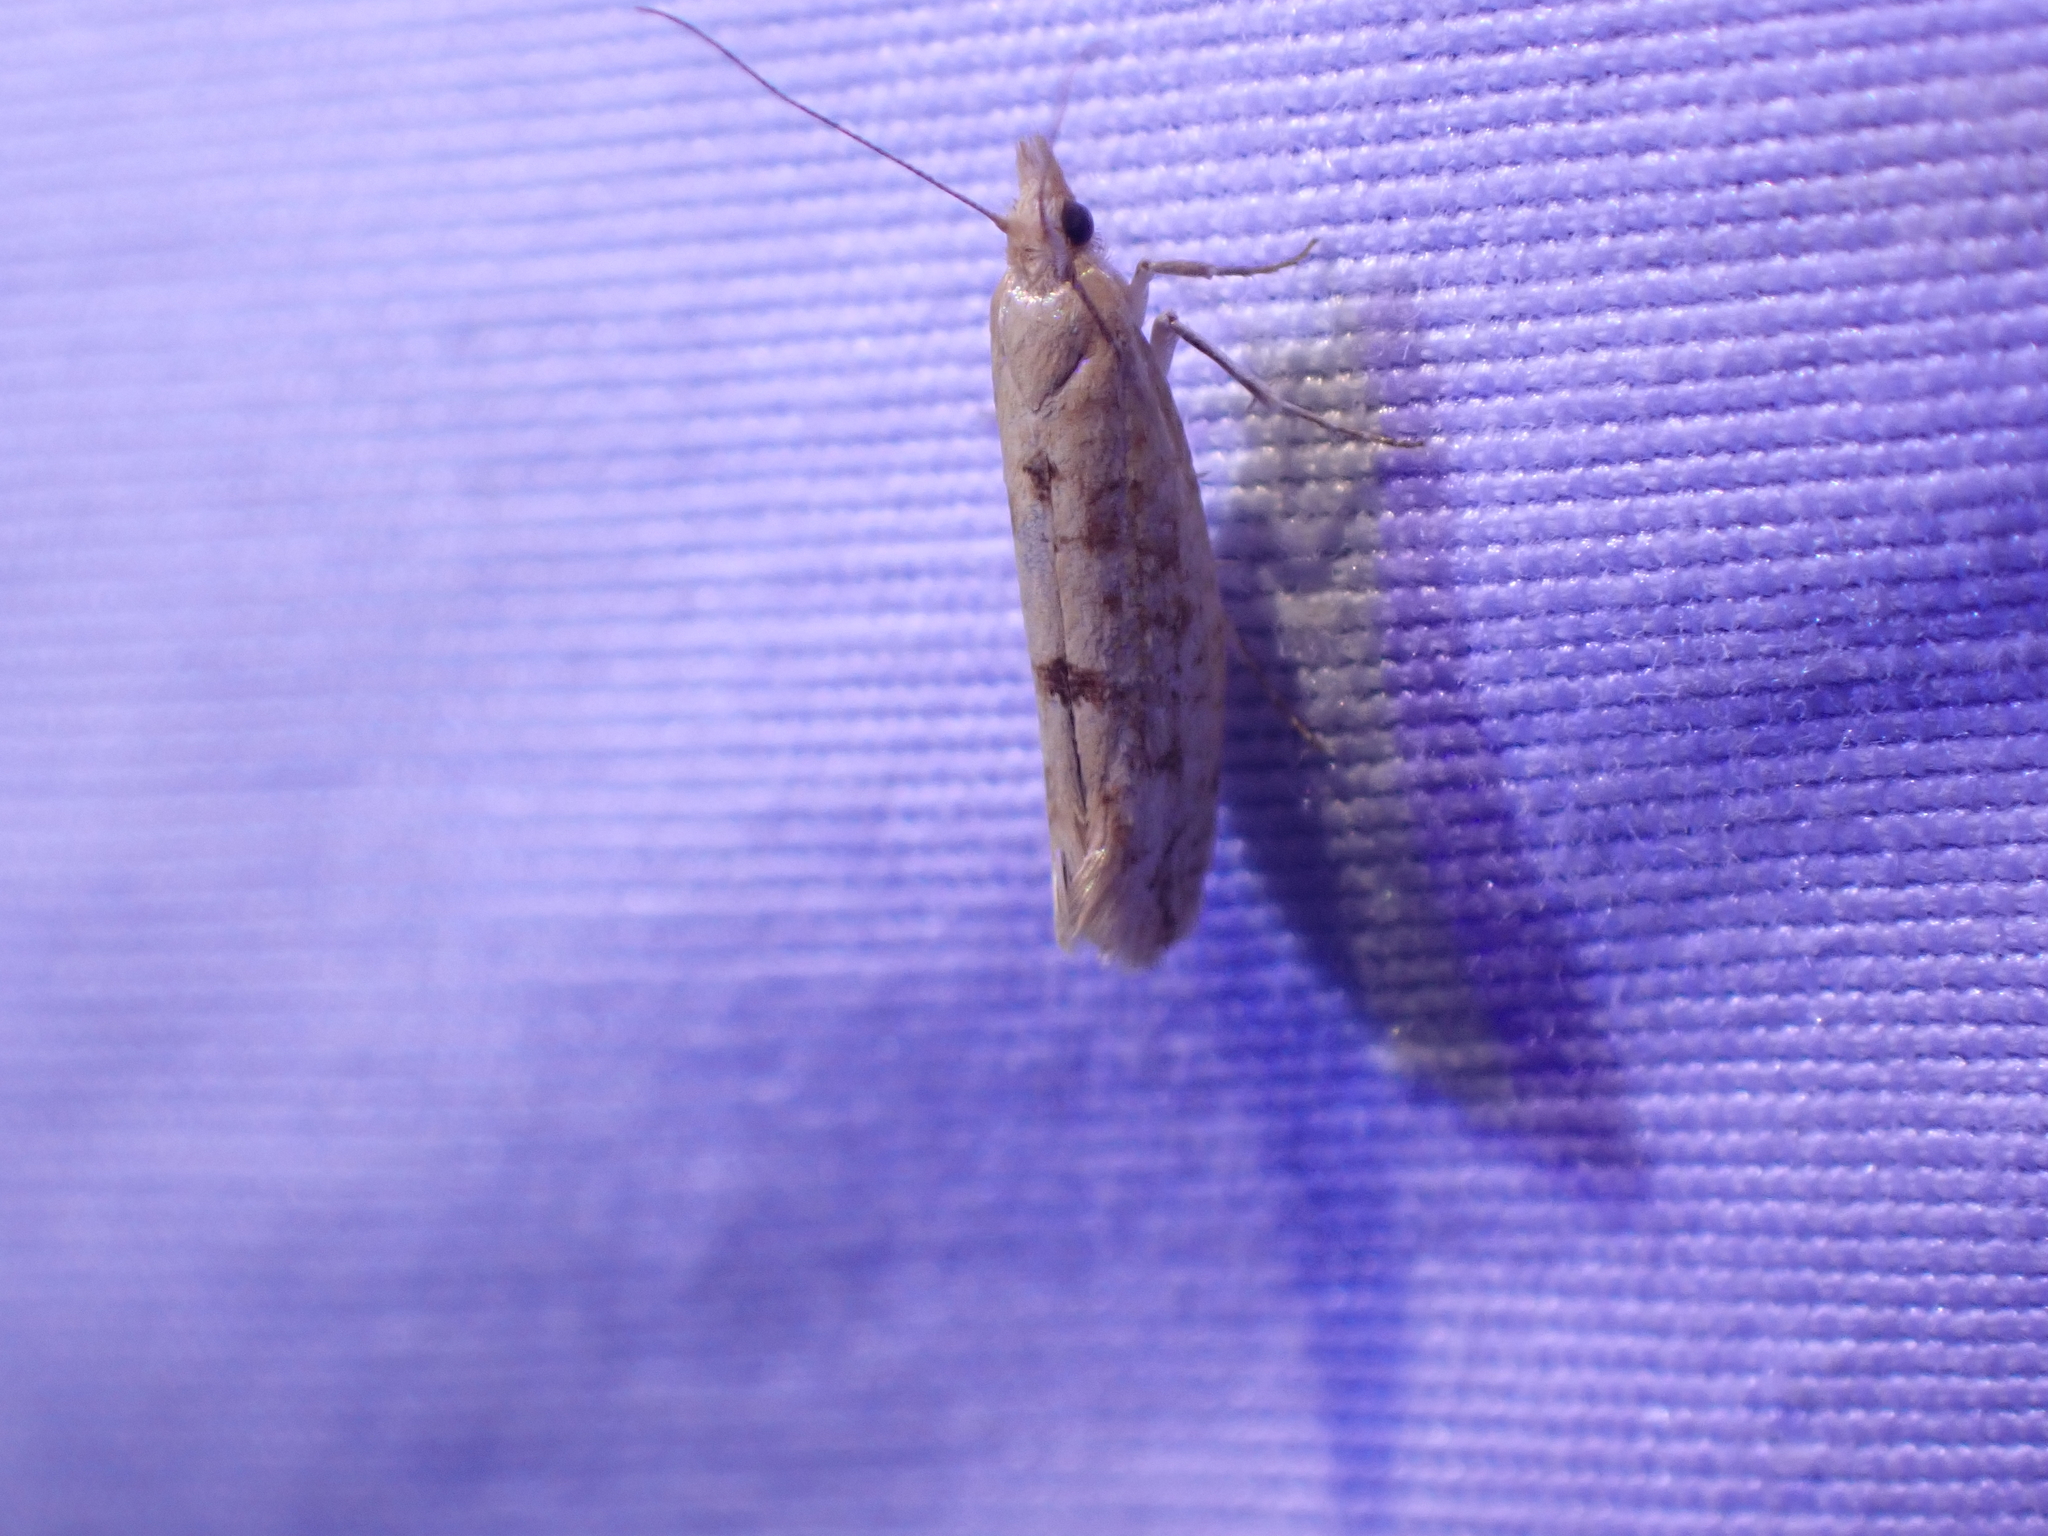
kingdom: Animalia
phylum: Arthropoda
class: Insecta
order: Lepidoptera
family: Ypsolophidae
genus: Ypsolopha
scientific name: Ypsolopha cervella
